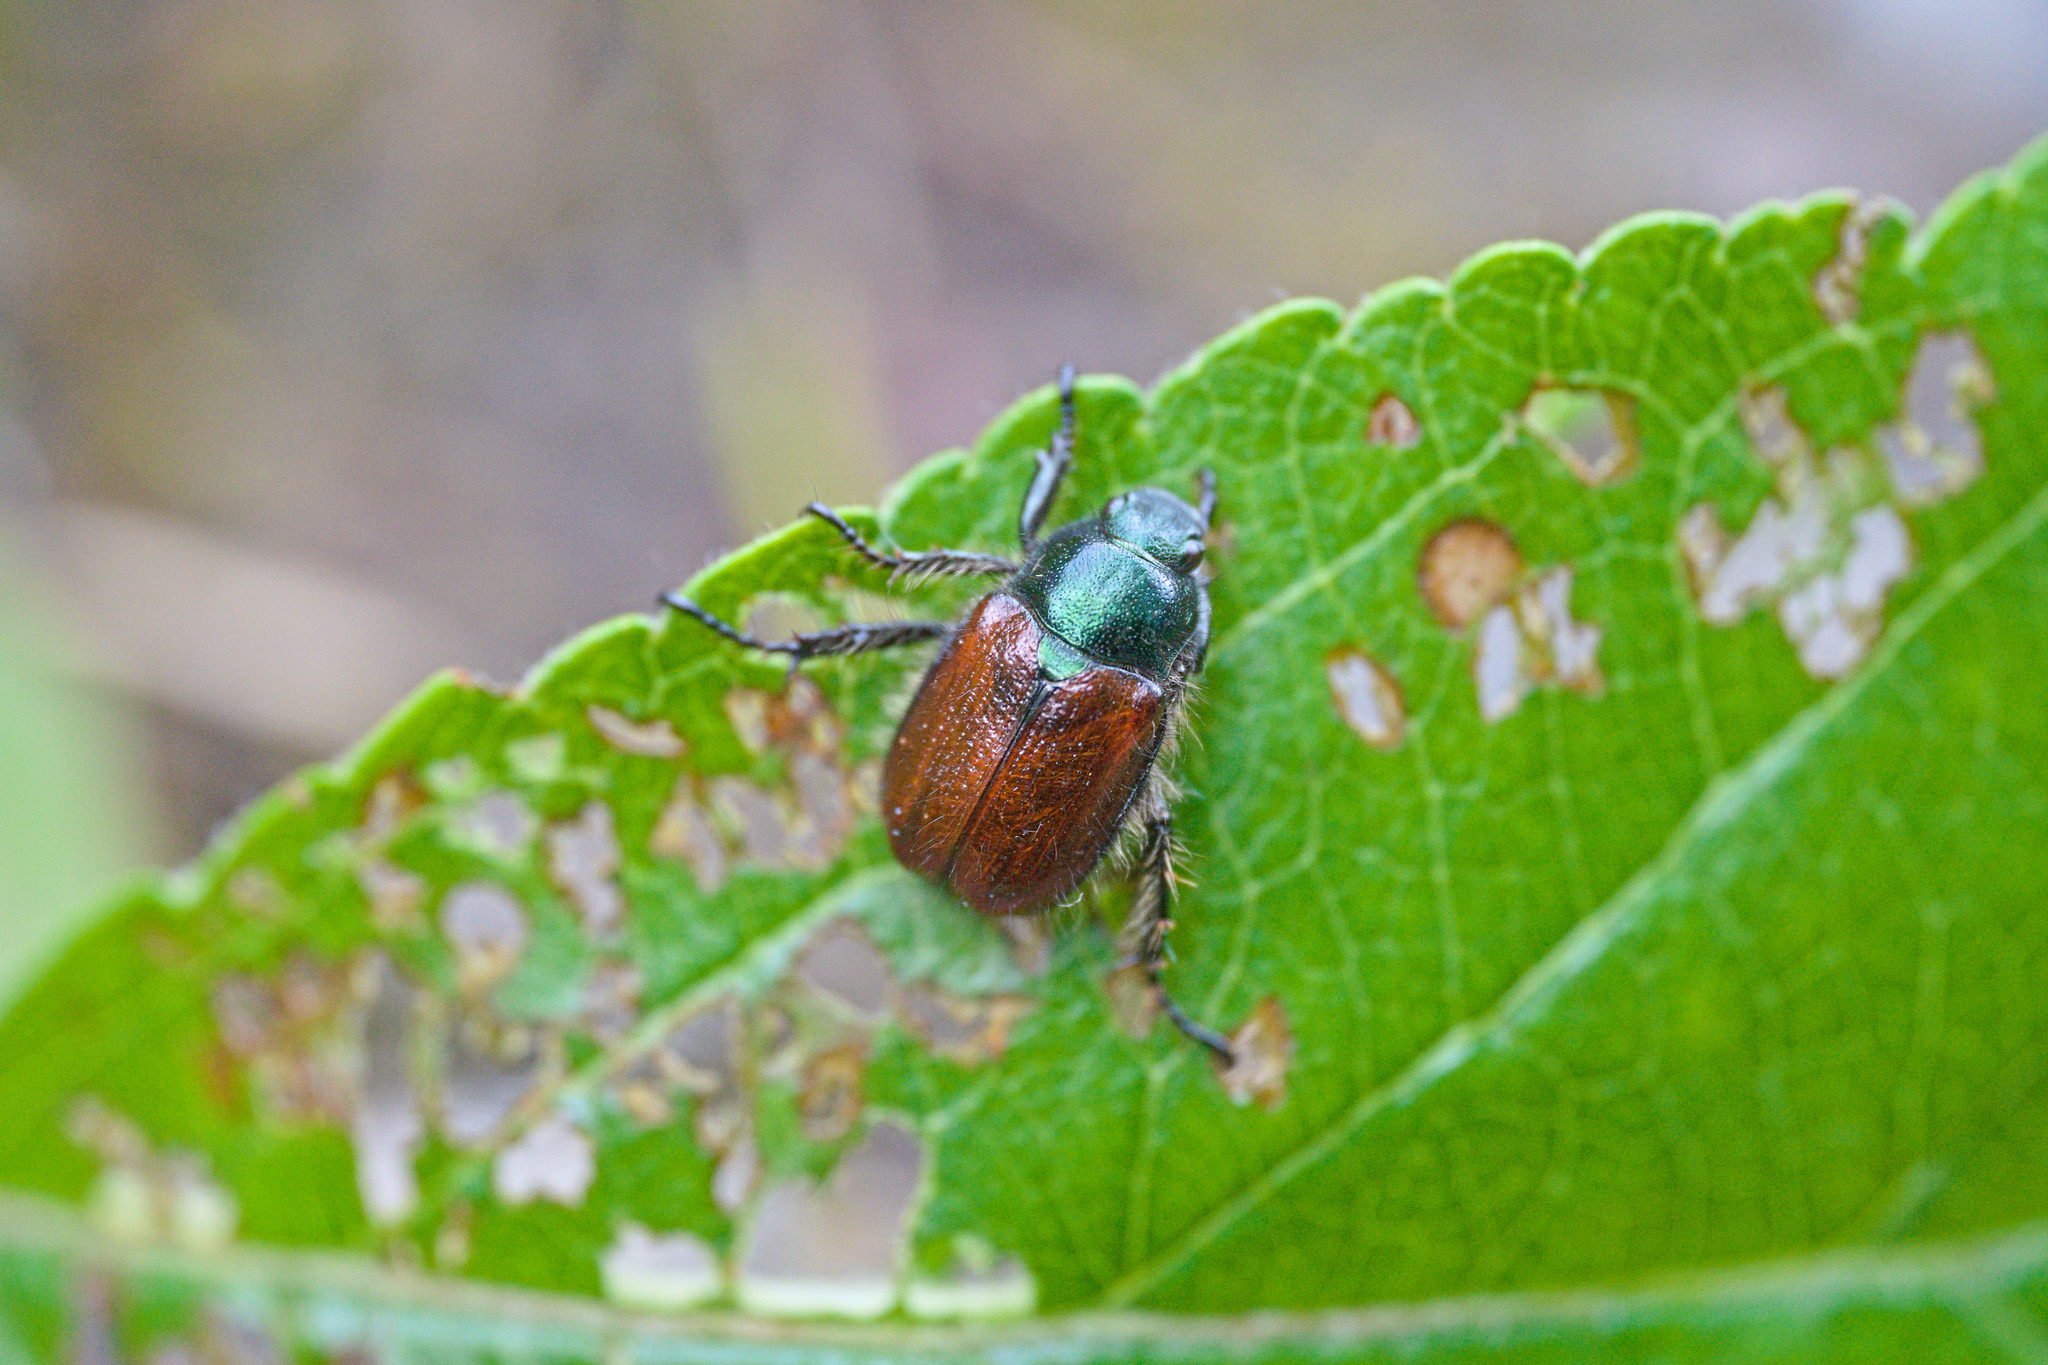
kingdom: Animalia
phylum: Arthropoda
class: Insecta
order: Coleoptera
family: Scarabaeidae
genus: Phyllopertha
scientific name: Phyllopertha horticola
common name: Garden chafer
